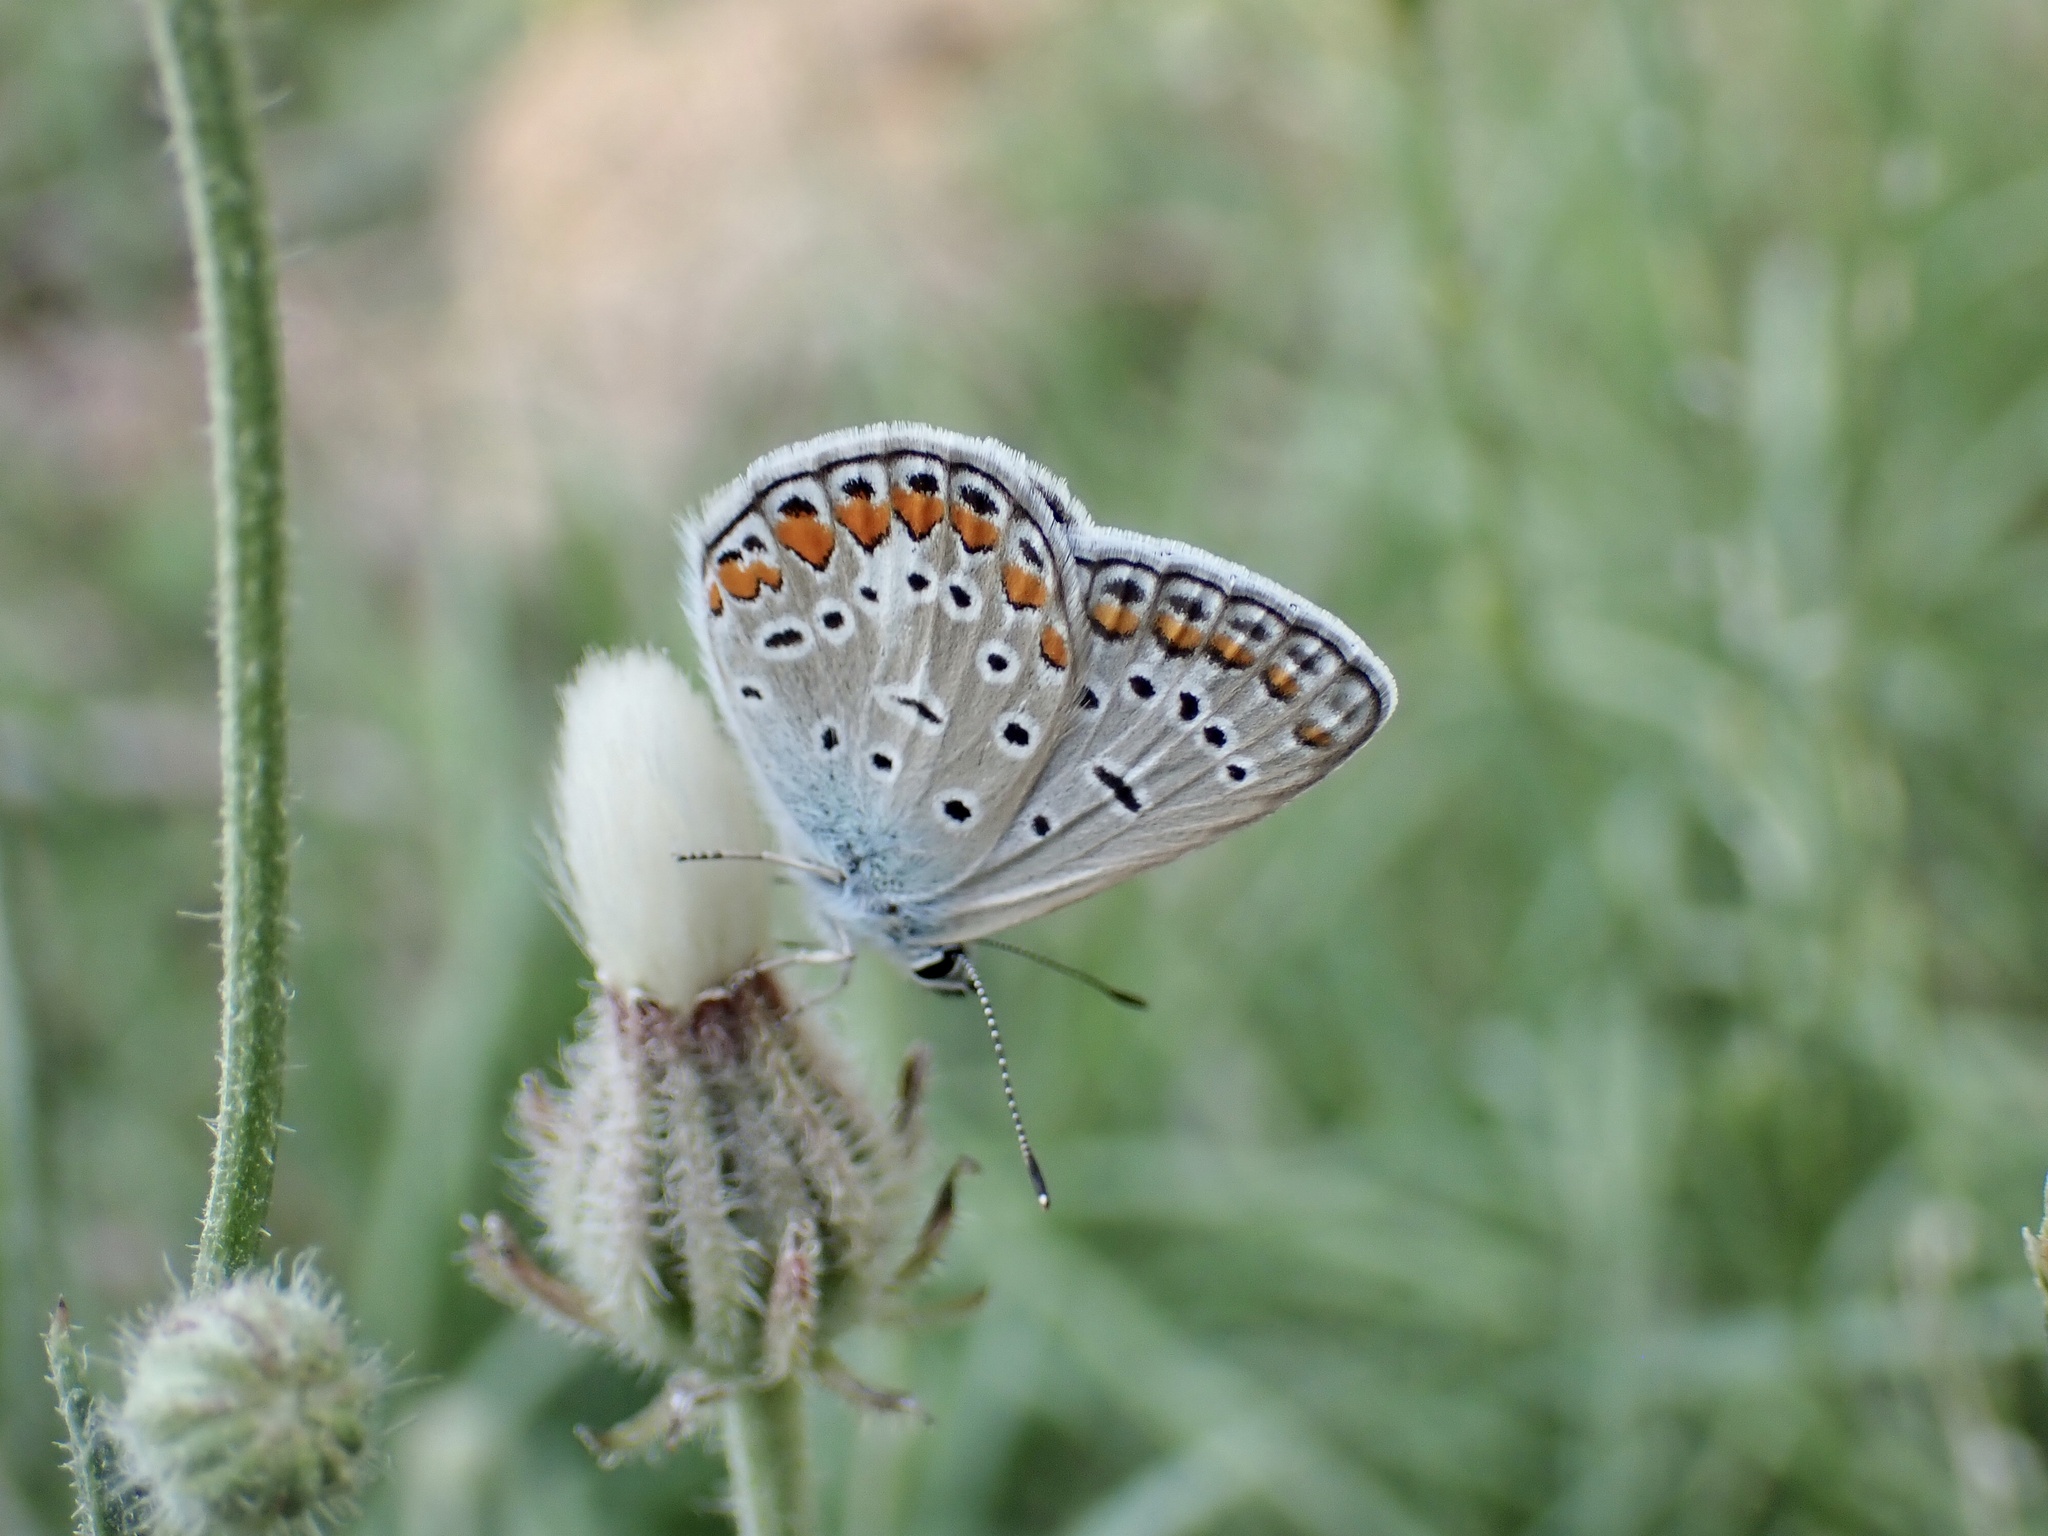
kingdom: Animalia
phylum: Arthropoda
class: Insecta
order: Lepidoptera
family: Lycaenidae
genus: Polyommatus
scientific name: Polyommatus icarus
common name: Common blue
